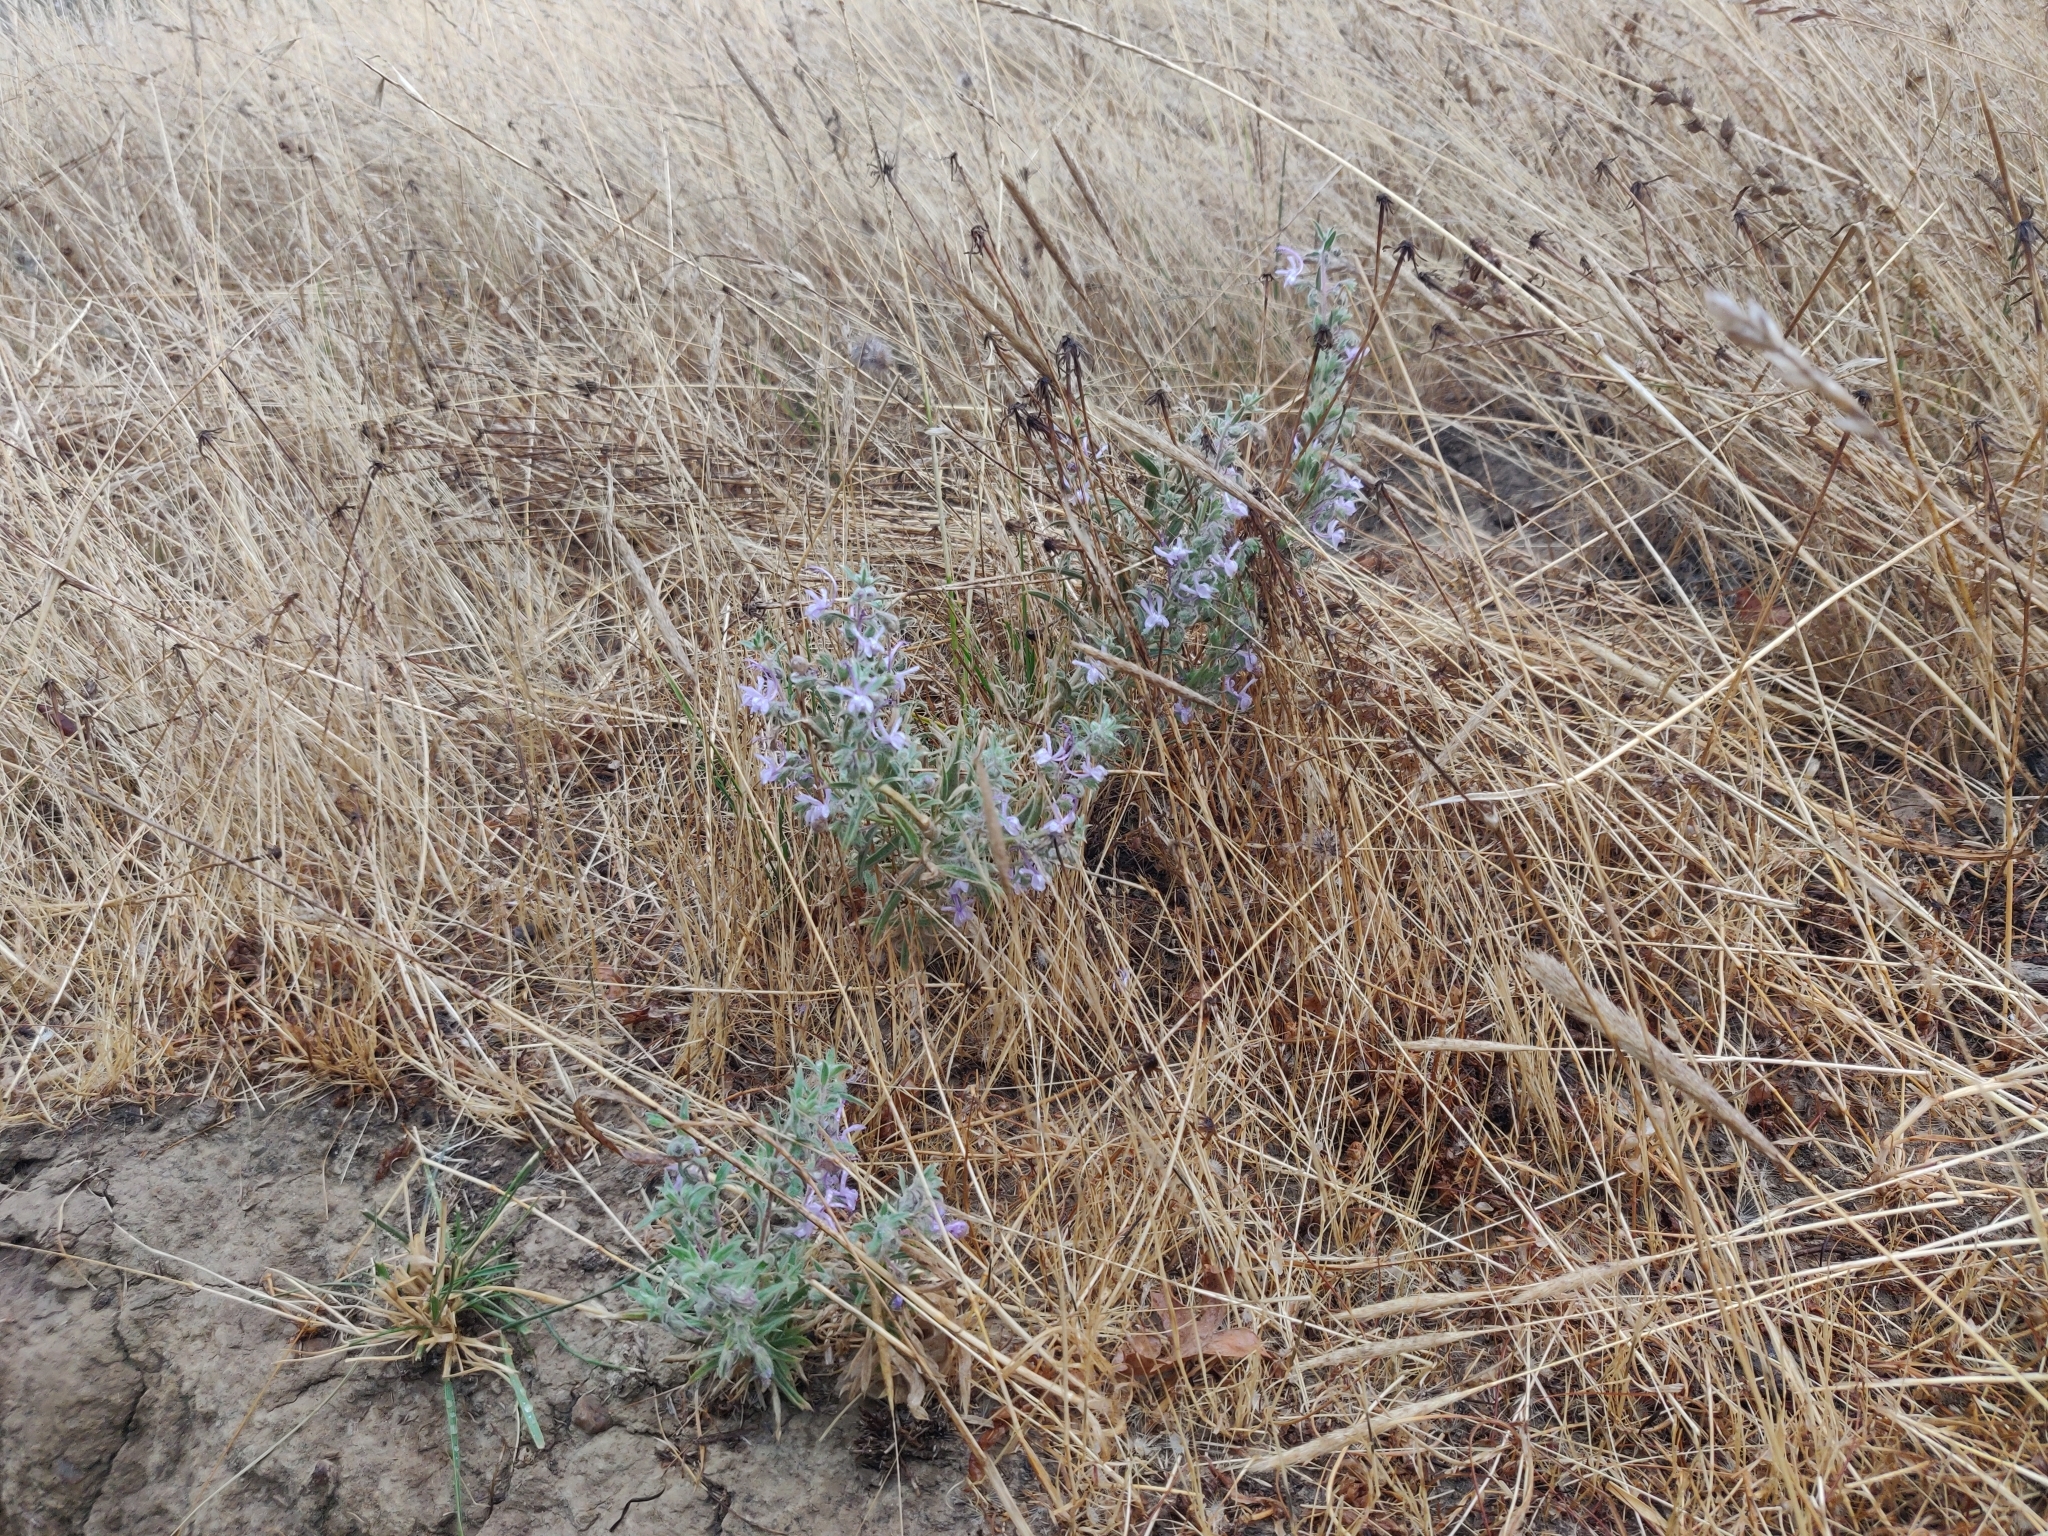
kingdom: Plantae
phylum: Tracheophyta
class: Magnoliopsida
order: Lamiales
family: Lamiaceae
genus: Trichostema
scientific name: Trichostema lanceolatum
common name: Vinegar-weed
